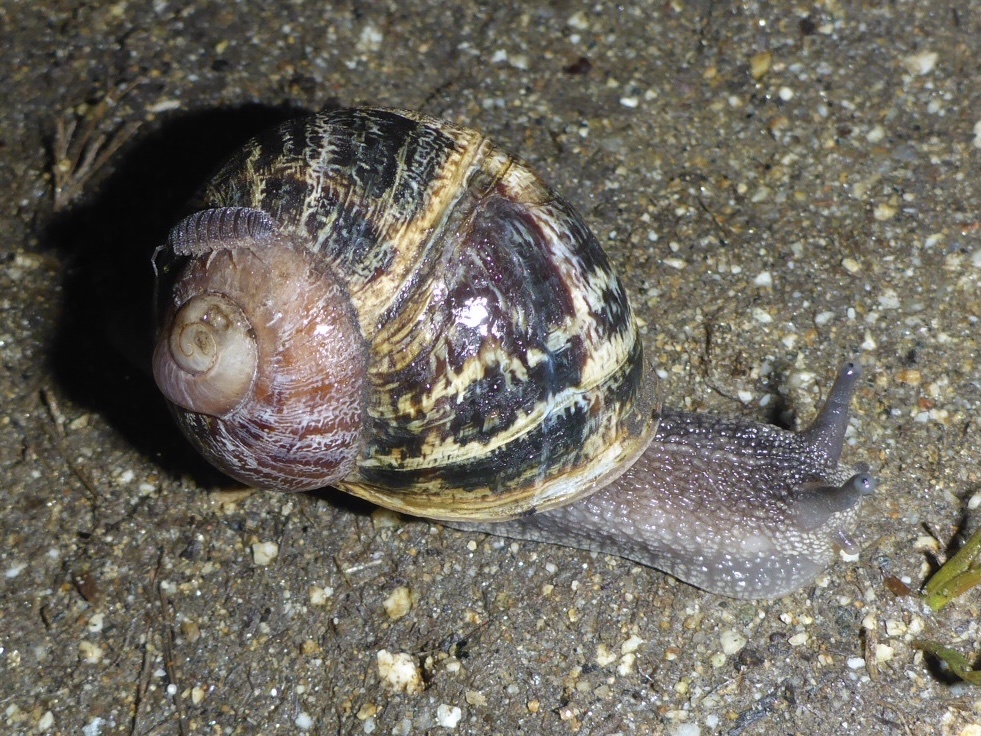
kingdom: Animalia
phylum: Mollusca
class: Gastropoda
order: Stylommatophora
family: Helicidae
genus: Cornu
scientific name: Cornu aspersum
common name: Brown garden snail
